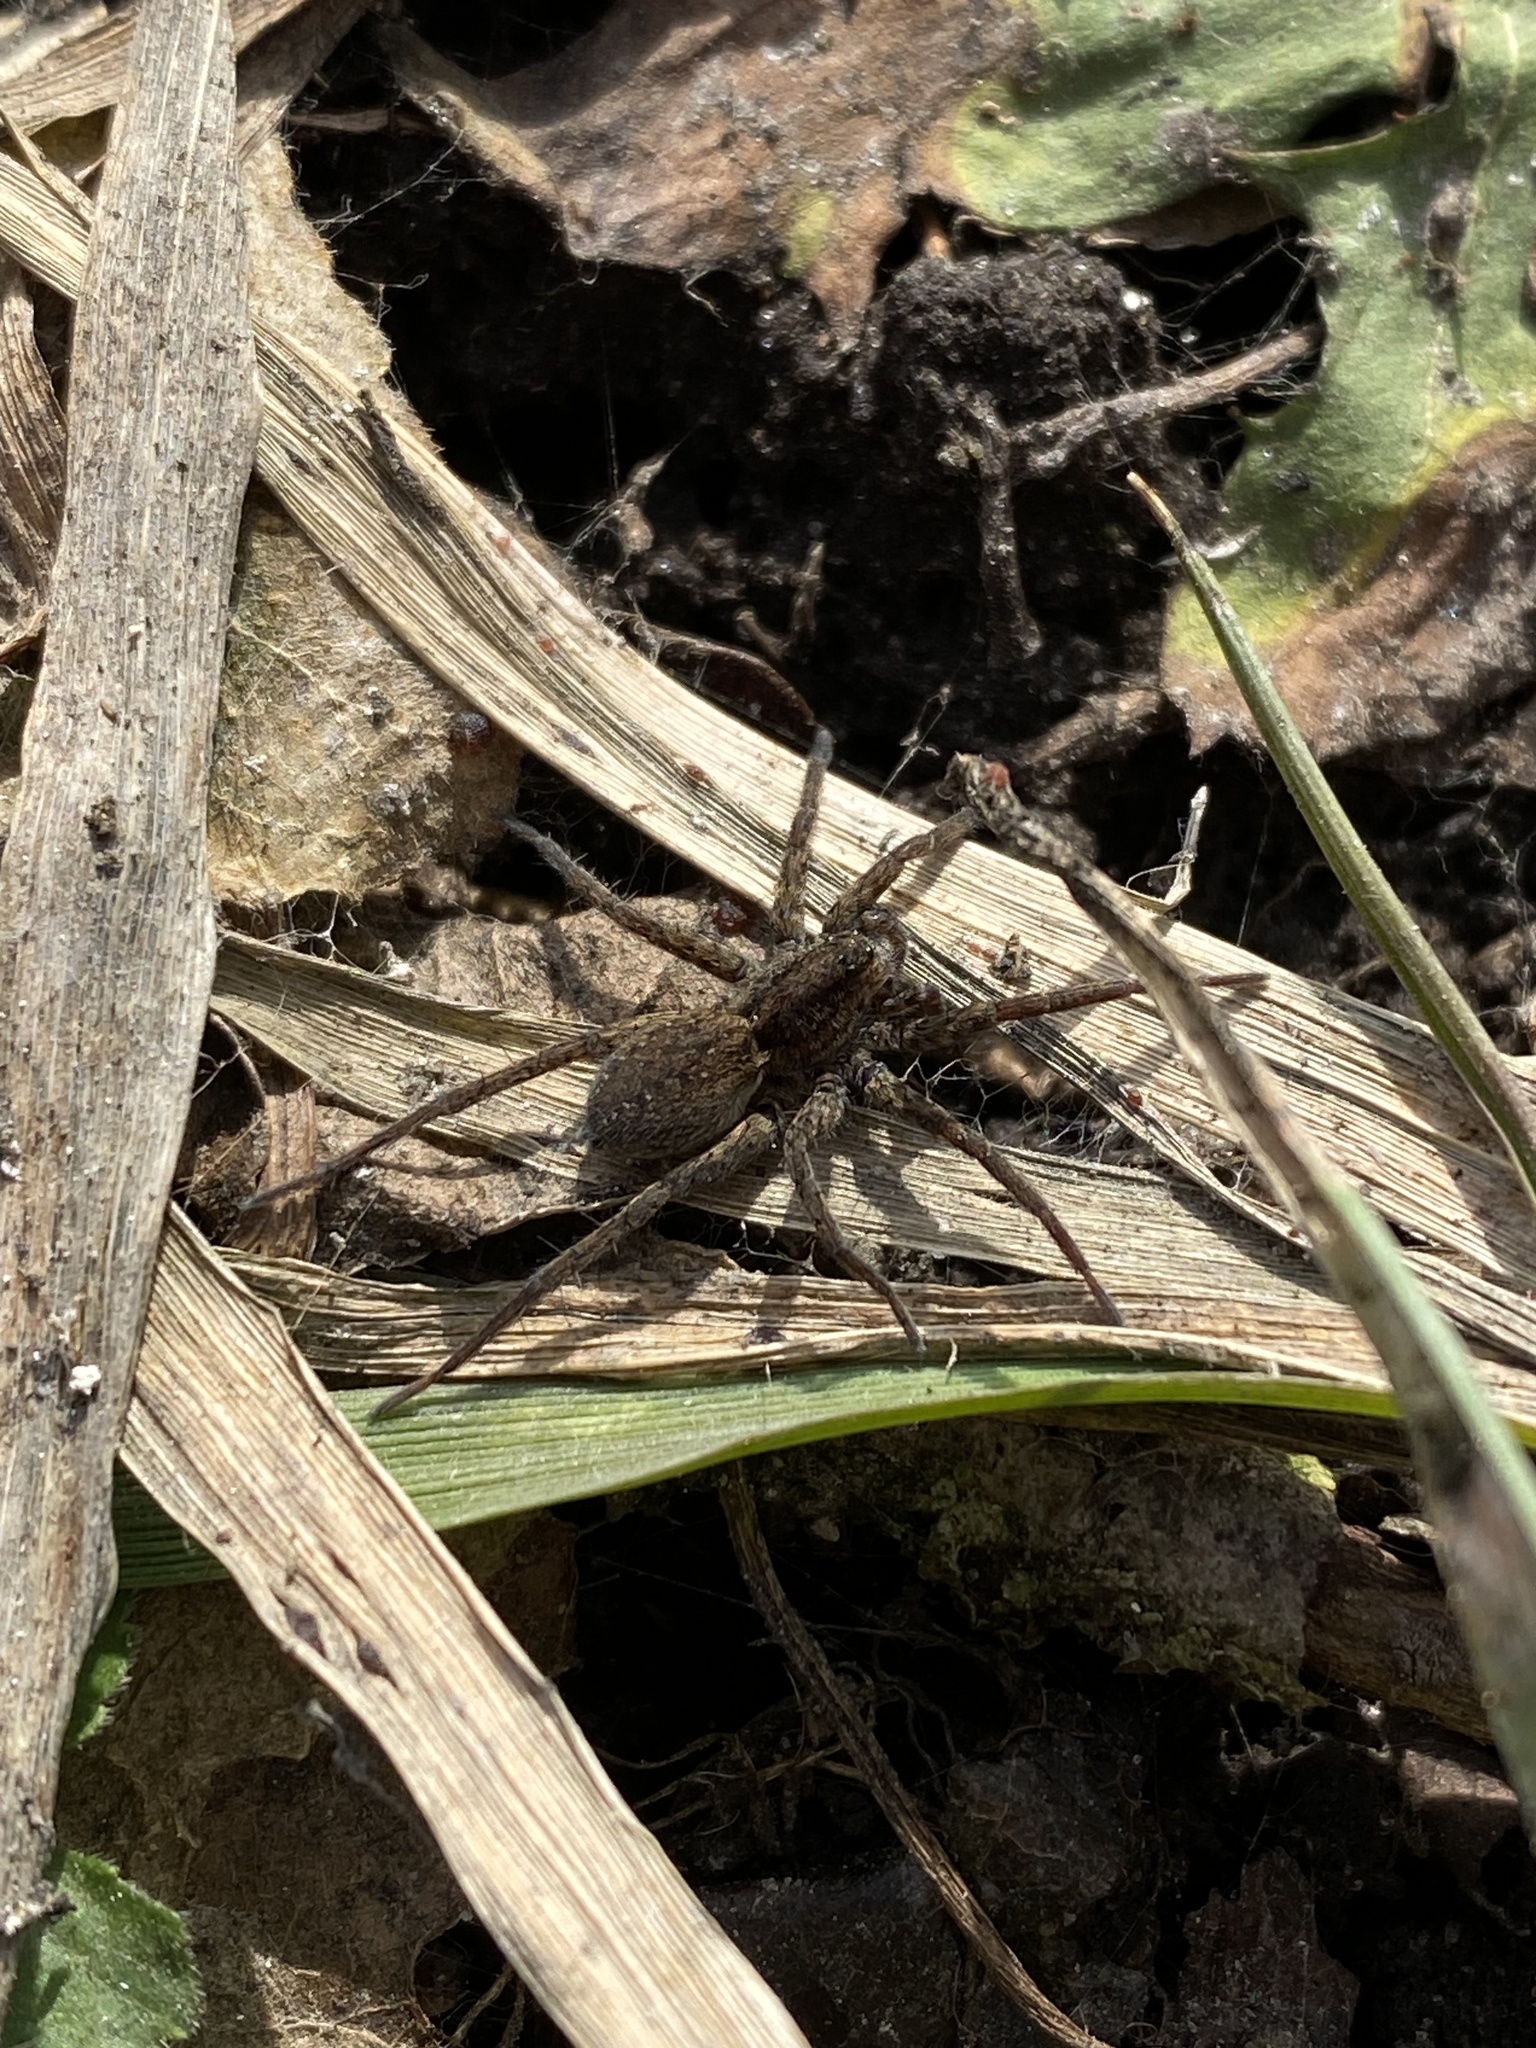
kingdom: Animalia
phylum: Arthropoda
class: Arachnida
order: Araneae
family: Lycosidae
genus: Pardosa
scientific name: Pardosa
